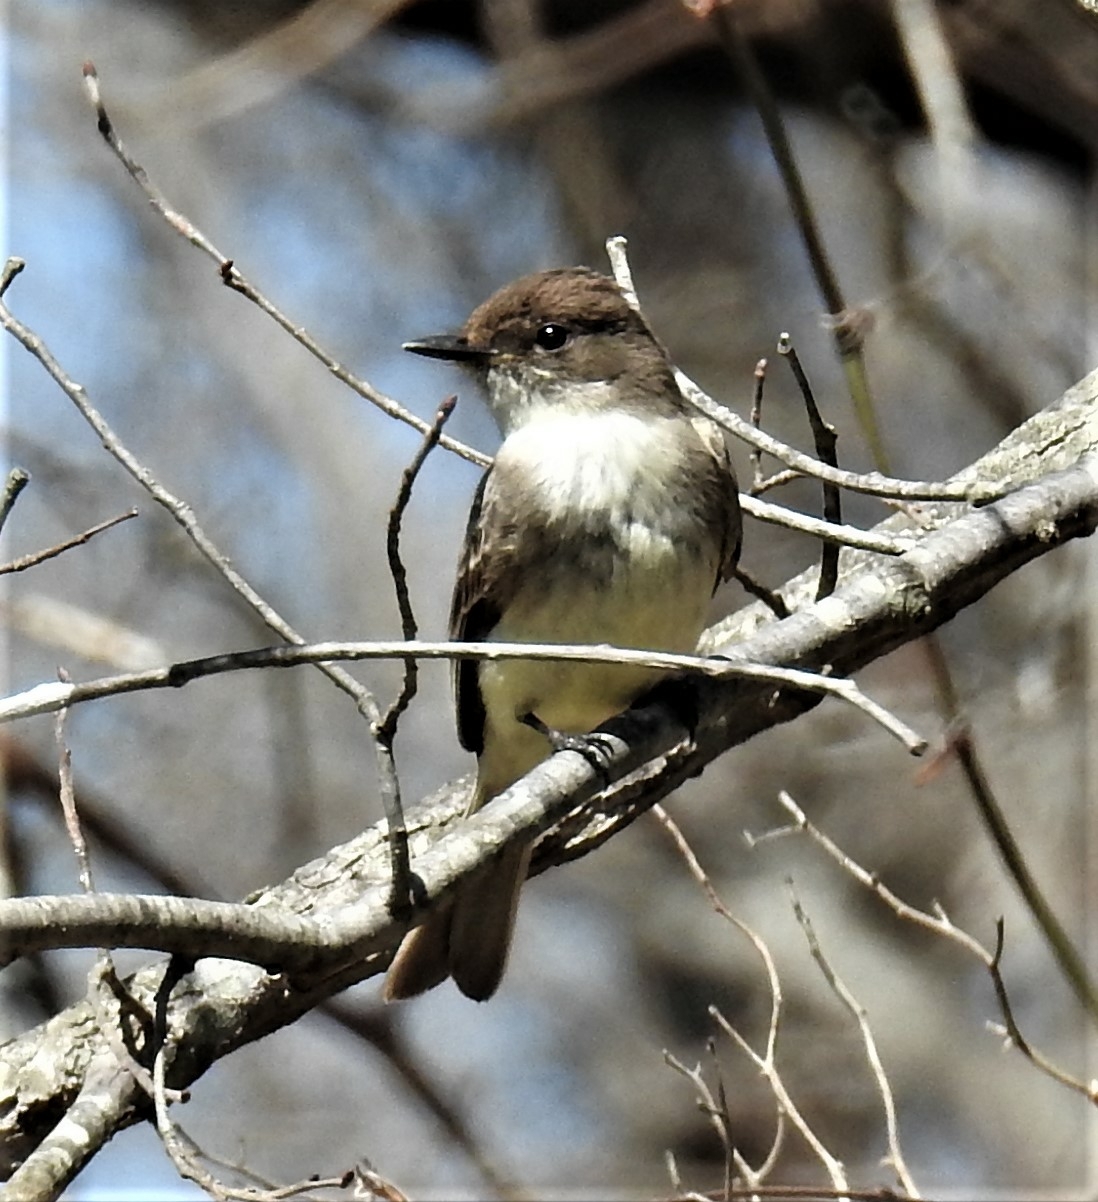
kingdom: Animalia
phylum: Chordata
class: Aves
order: Passeriformes
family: Tyrannidae
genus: Sayornis
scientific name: Sayornis phoebe
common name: Eastern phoebe
